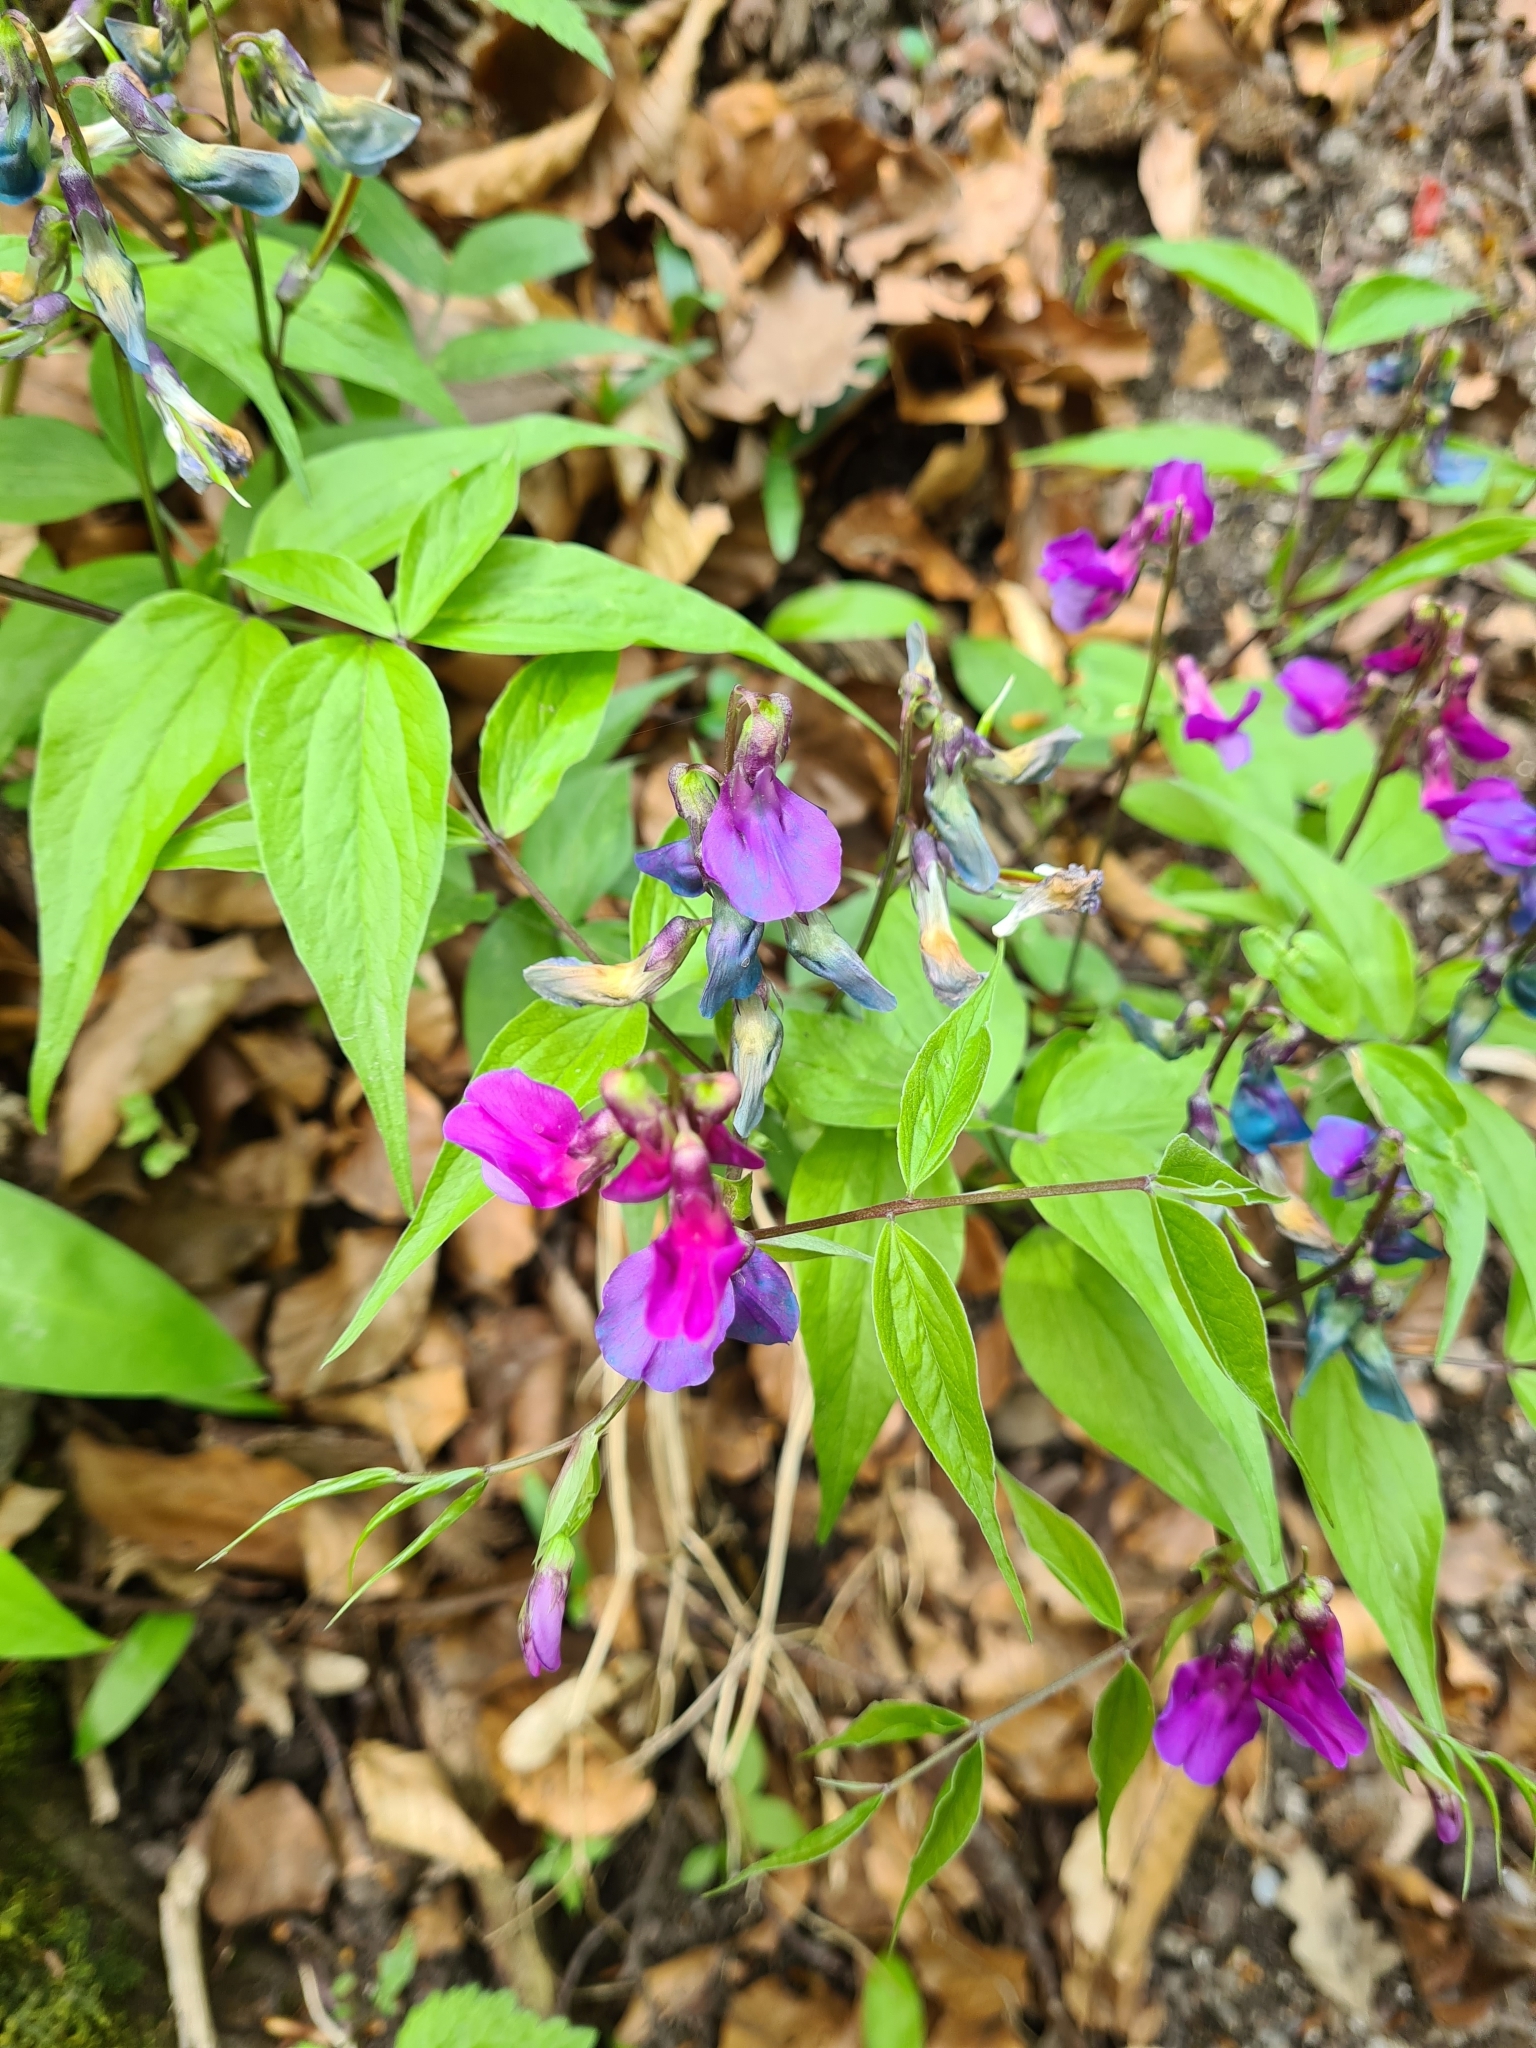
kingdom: Plantae
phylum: Tracheophyta
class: Magnoliopsida
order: Fabales
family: Fabaceae
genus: Lathyrus
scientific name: Lathyrus vernus
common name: Spring pea
